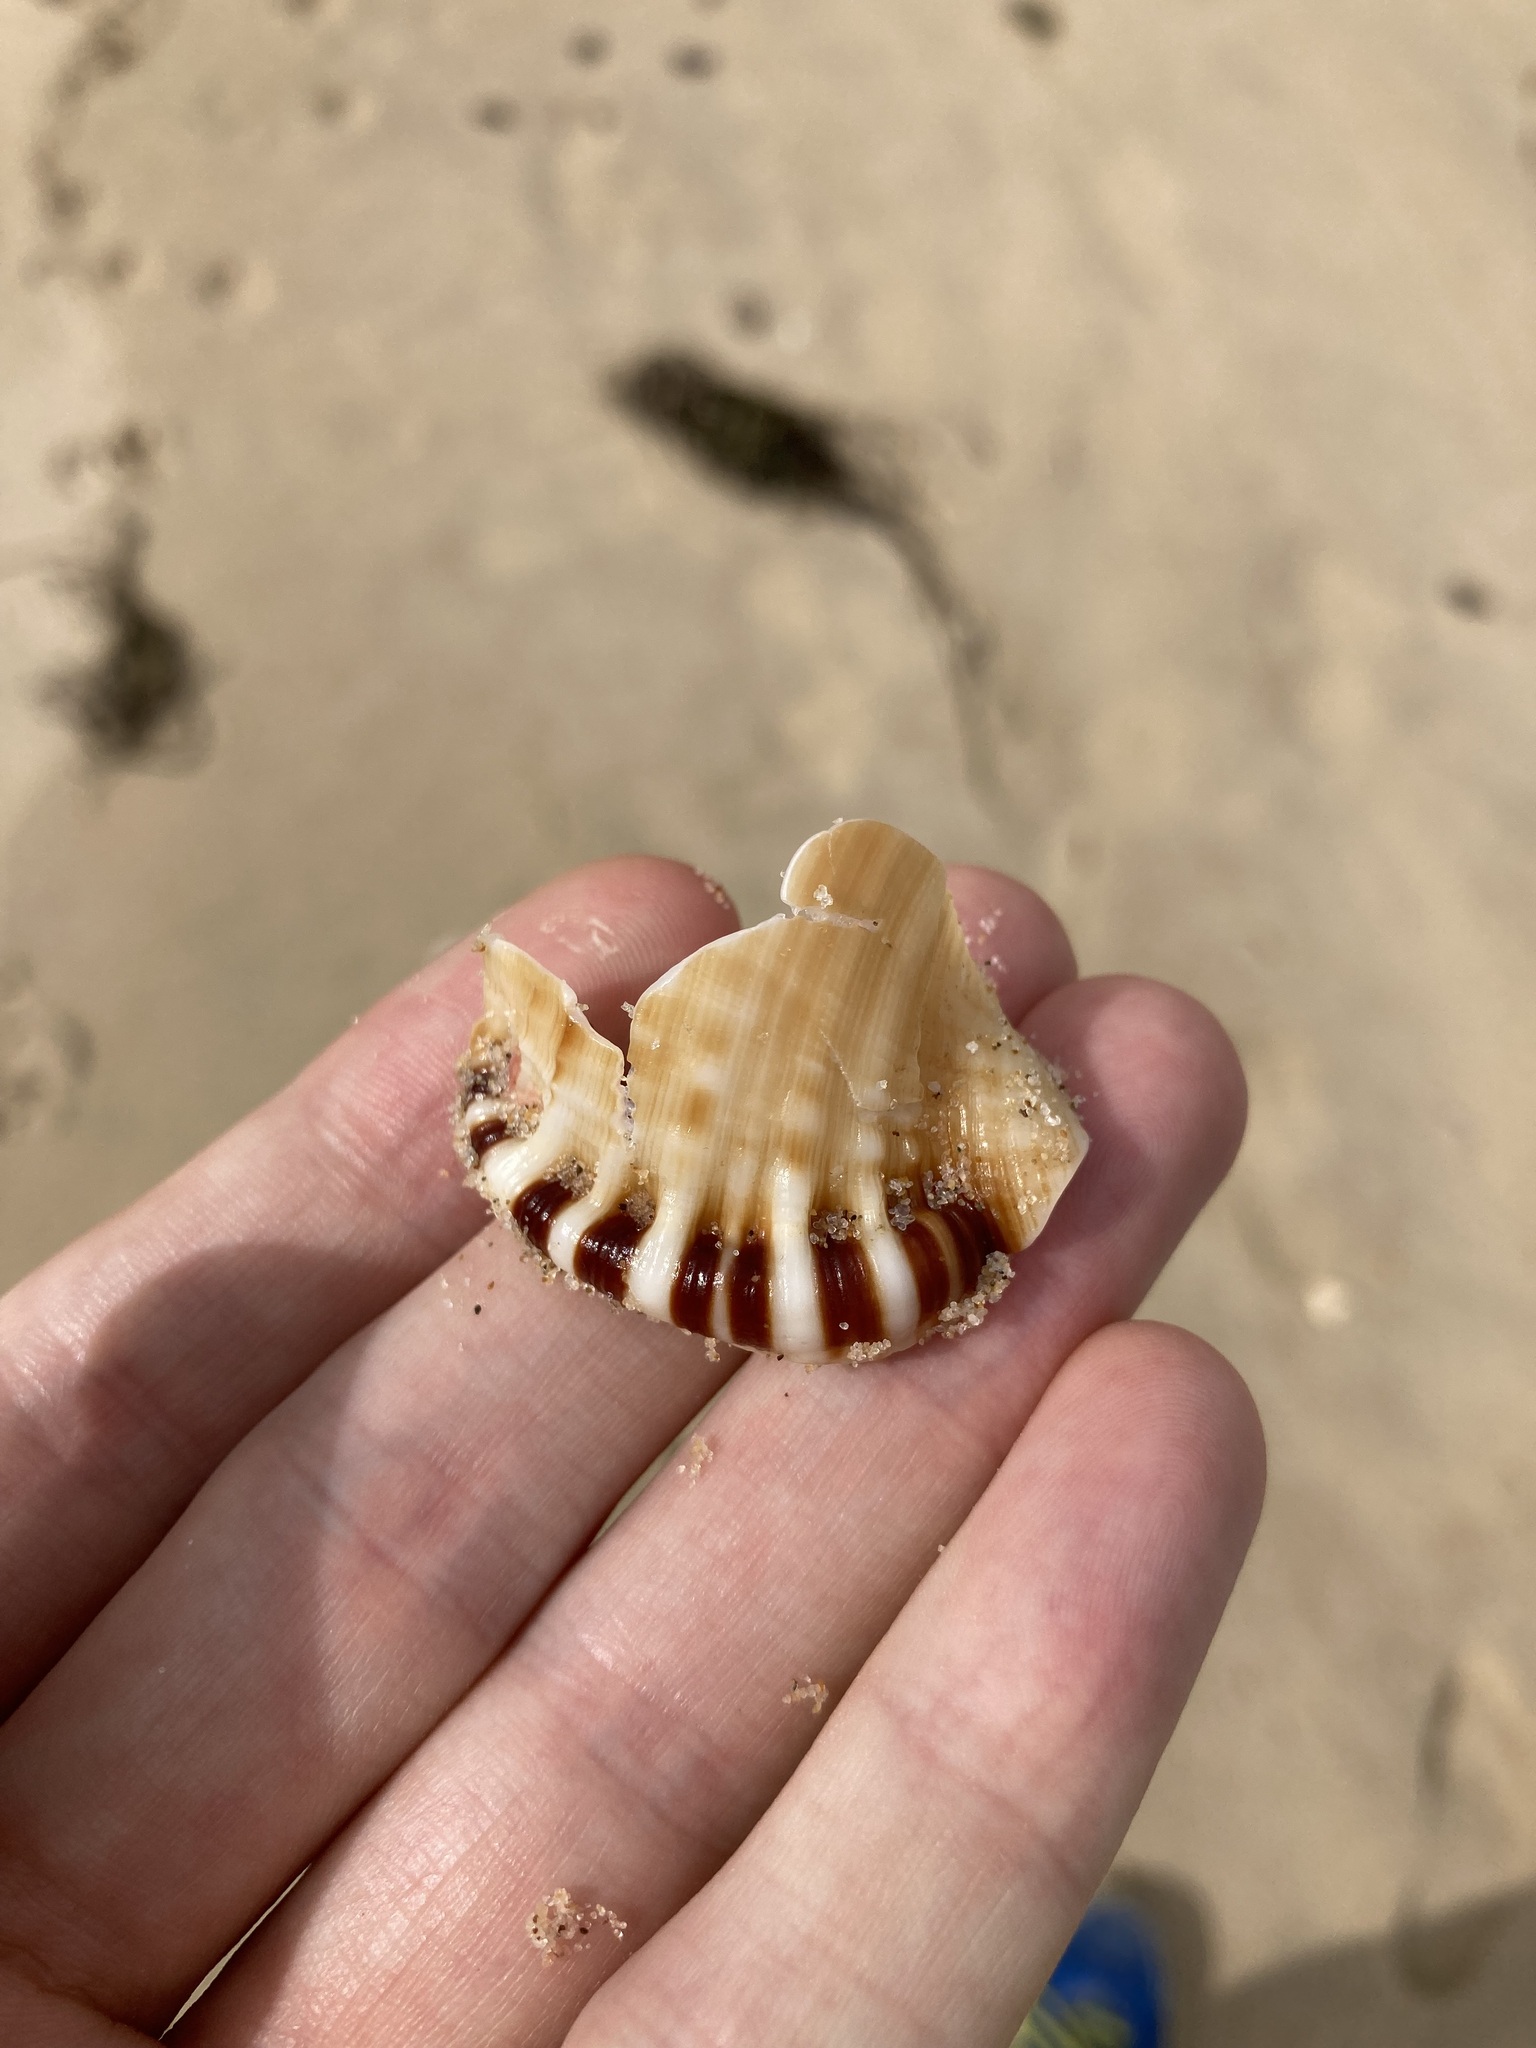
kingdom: Animalia
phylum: Mollusca
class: Gastropoda
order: Littorinimorpha
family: Ranellidae
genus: Ranella
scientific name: Ranella australasia
